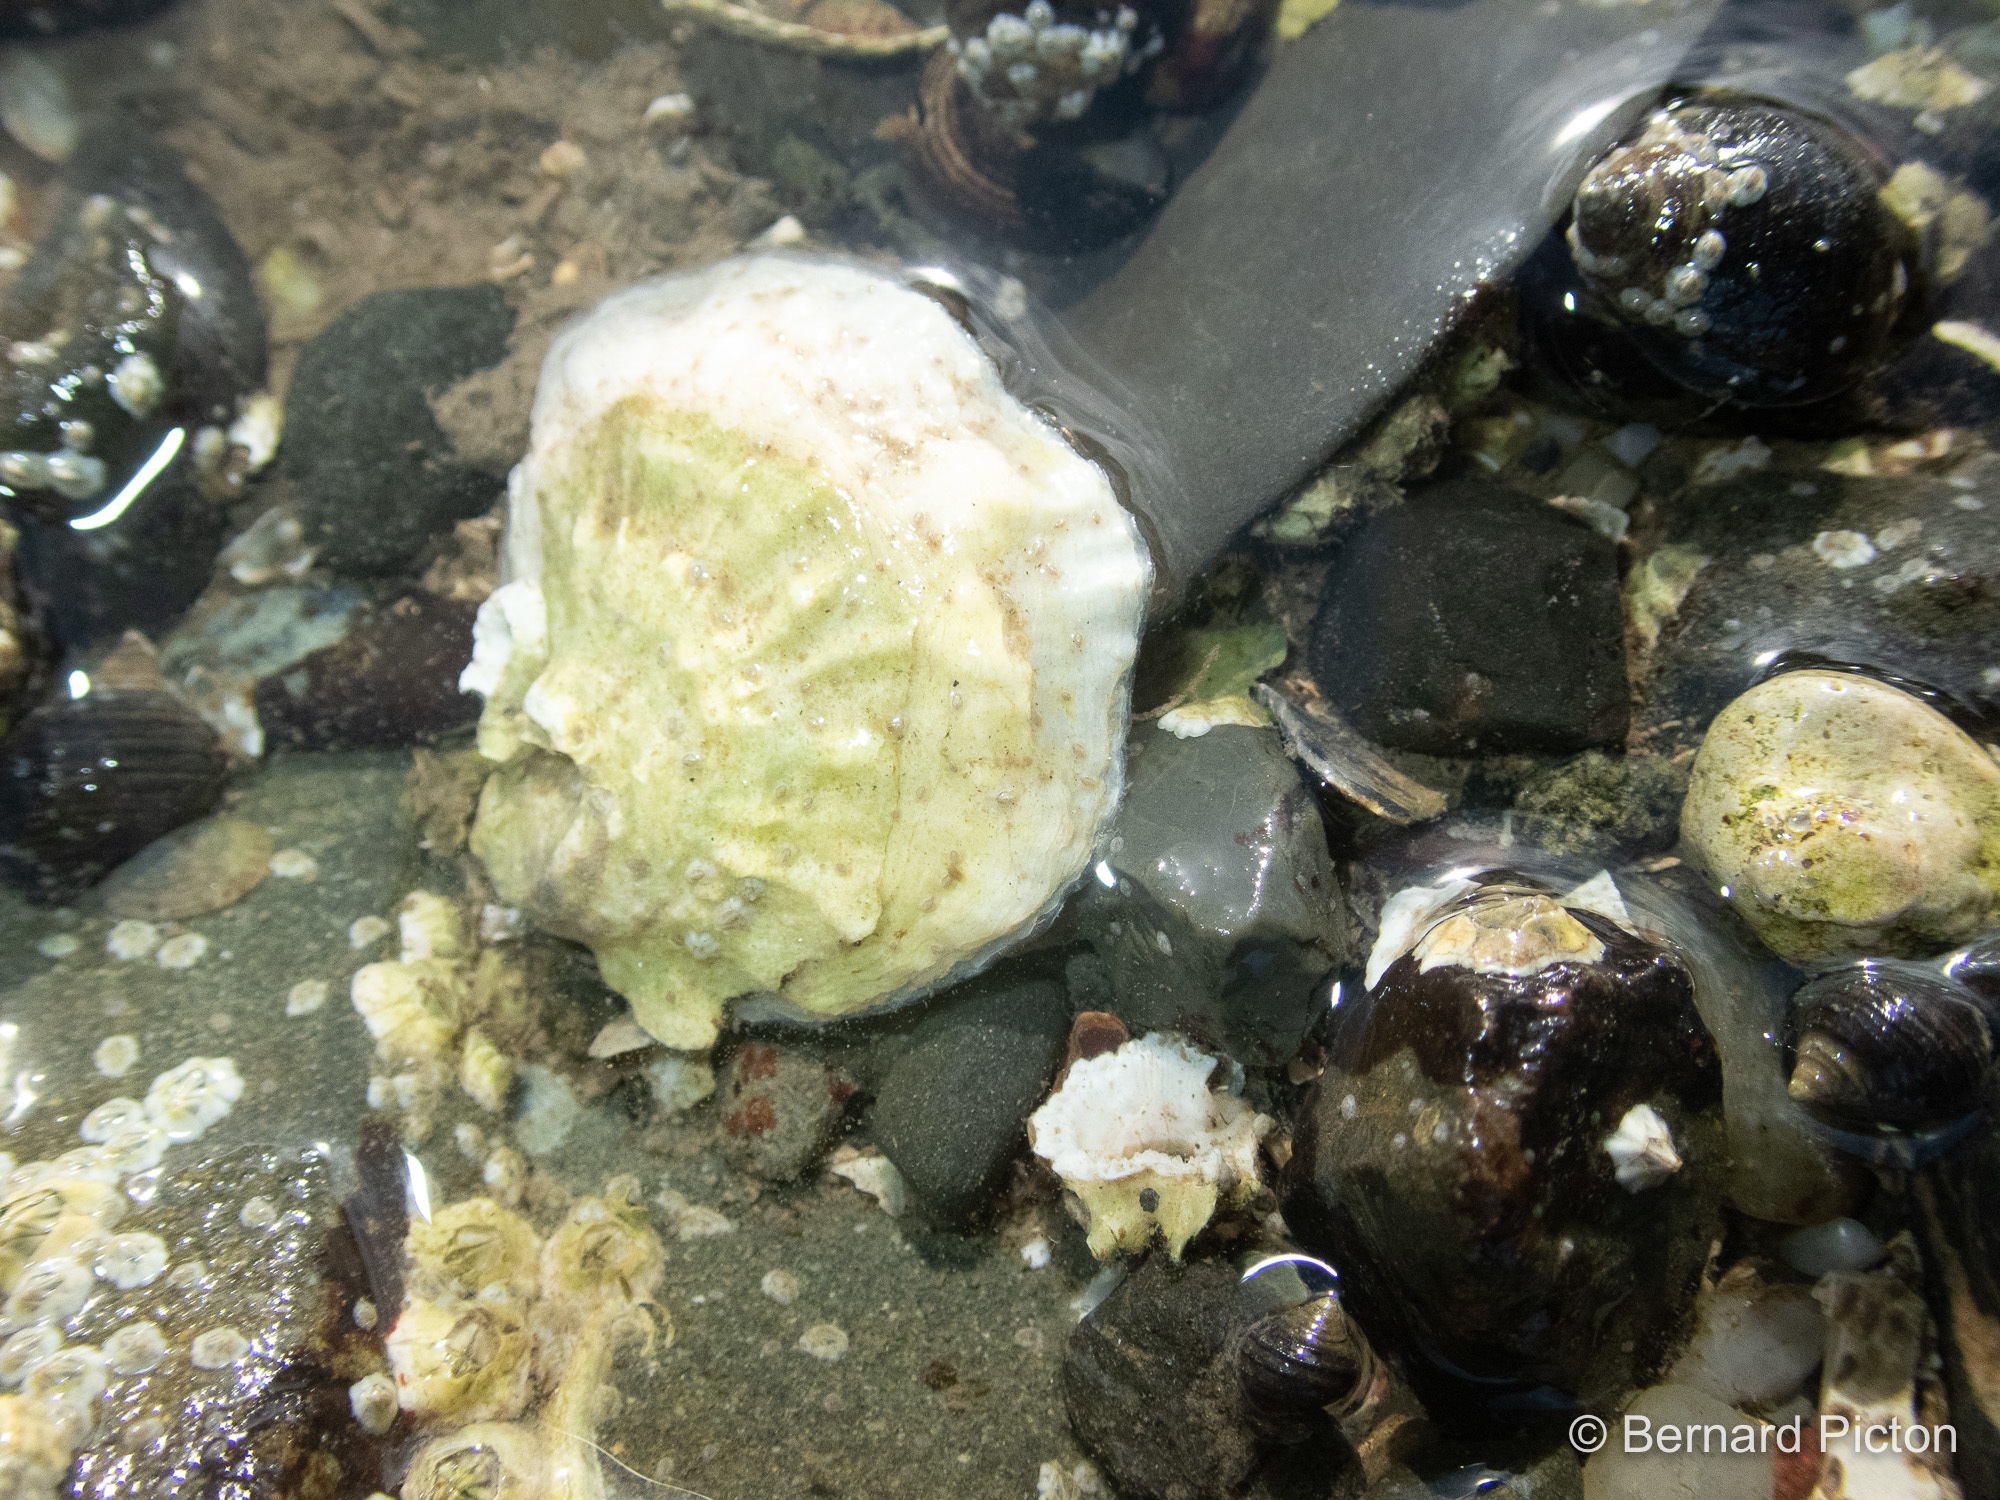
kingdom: Animalia
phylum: Mollusca
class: Bivalvia
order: Ostreida
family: Ostreidae
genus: Ostrea
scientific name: Ostrea edulis
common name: Flat oyster
